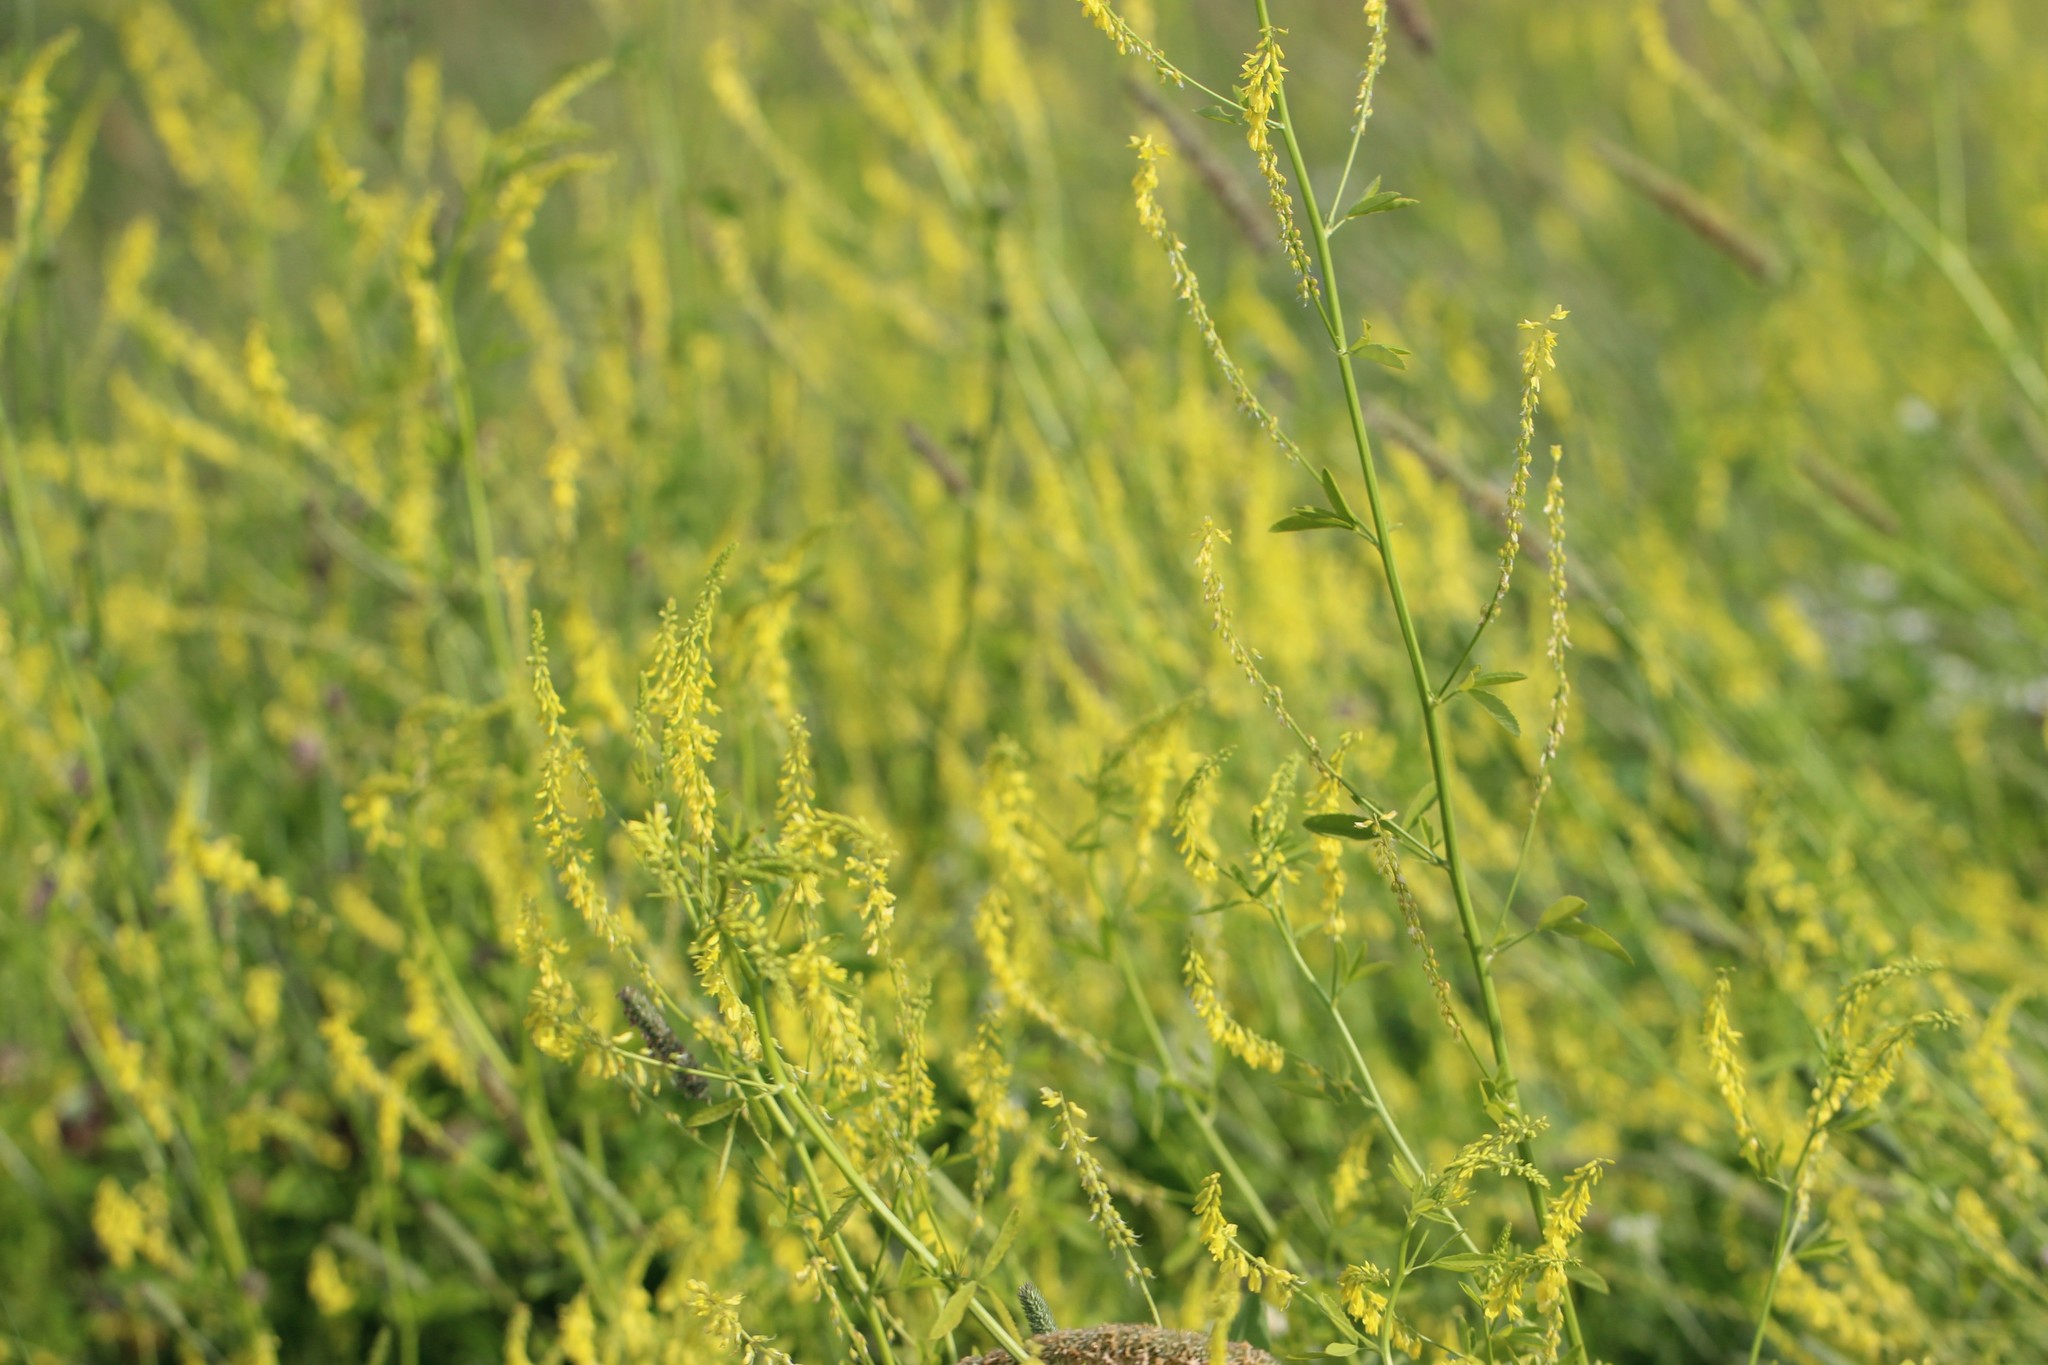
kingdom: Plantae
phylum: Tracheophyta
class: Magnoliopsida
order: Fabales
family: Fabaceae
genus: Melilotus
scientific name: Melilotus officinalis
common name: Sweetclover
